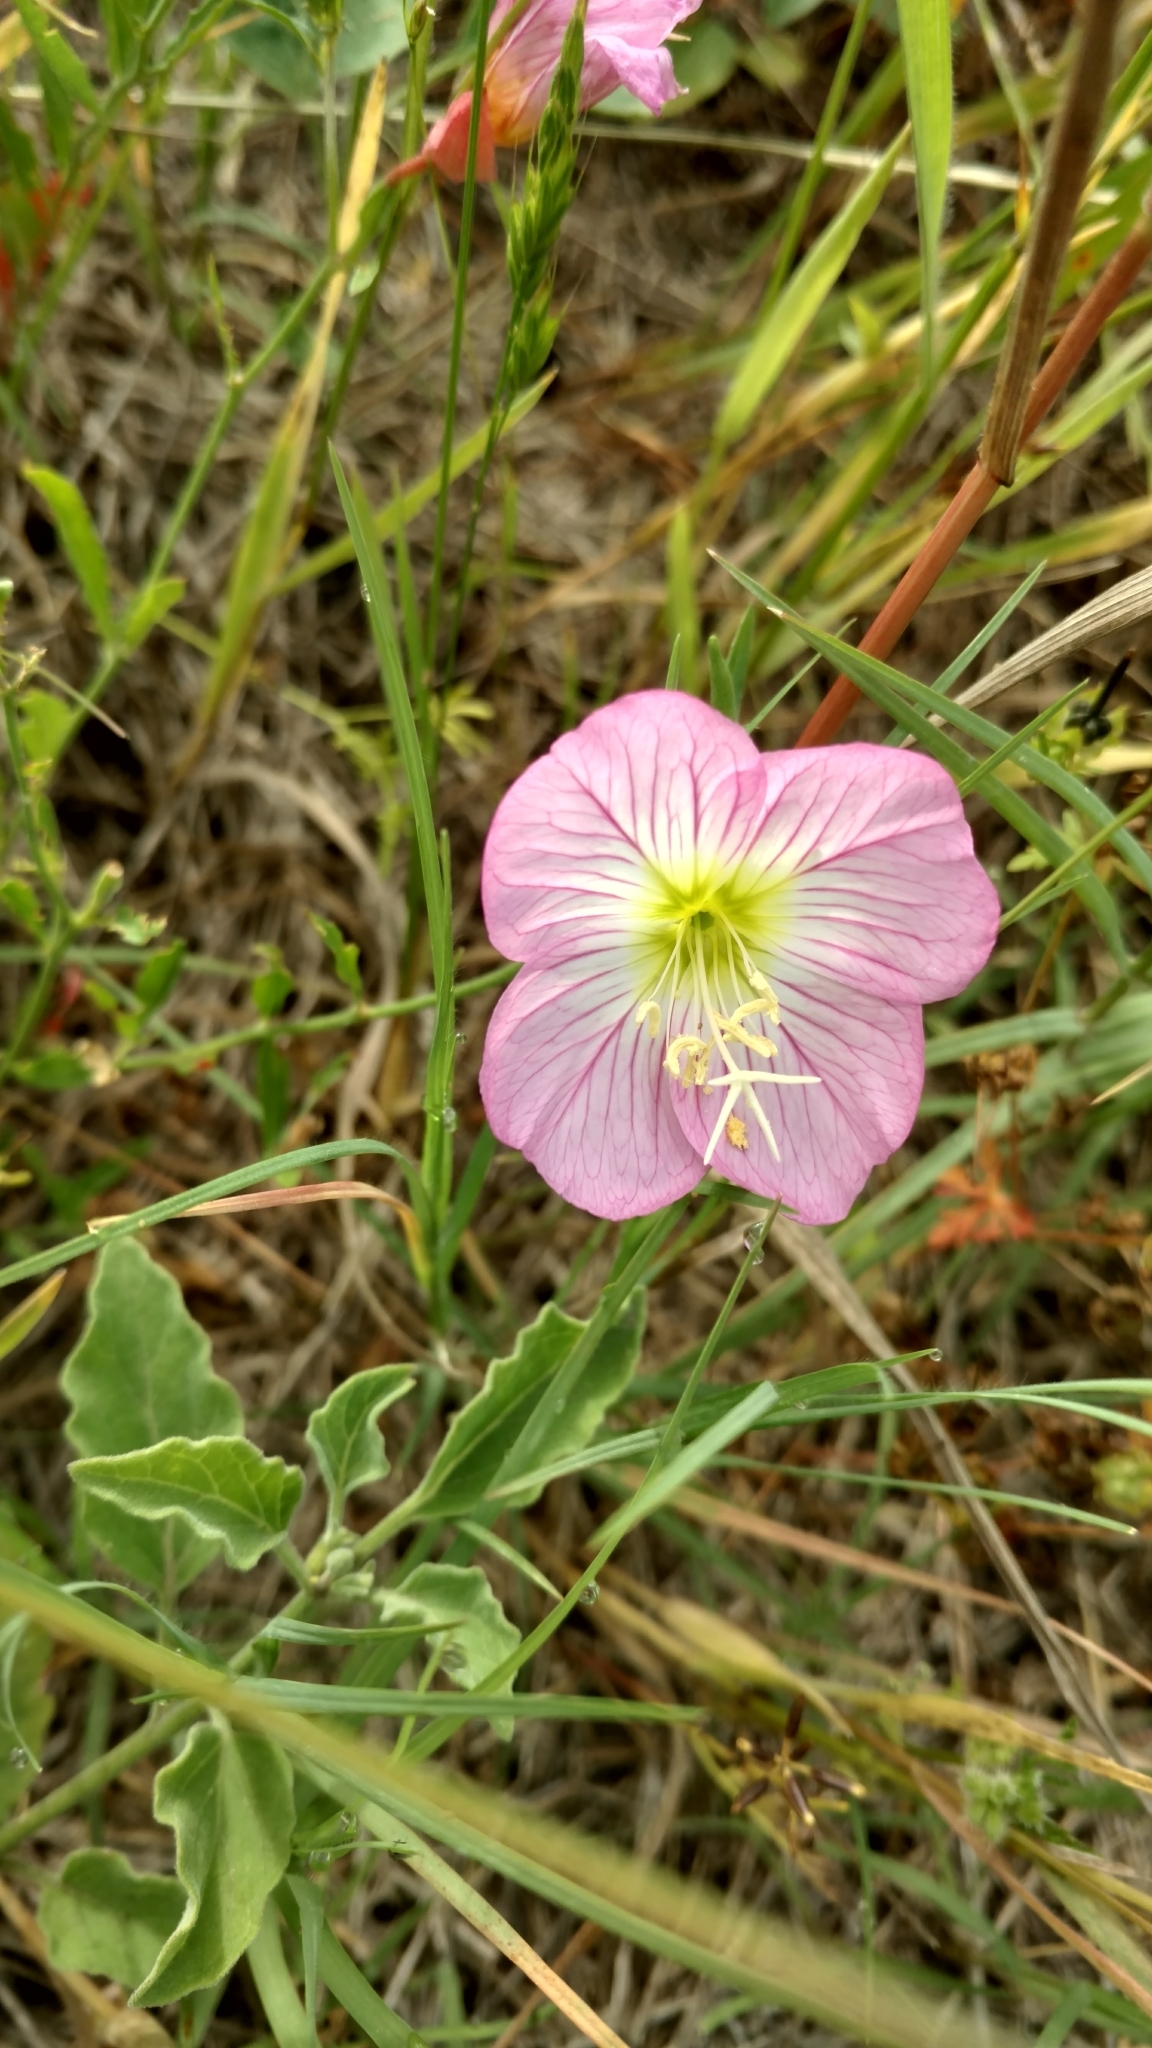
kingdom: Plantae
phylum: Tracheophyta
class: Magnoliopsida
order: Myrtales
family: Onagraceae
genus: Oenothera
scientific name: Oenothera speciosa
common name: White evening-primrose
